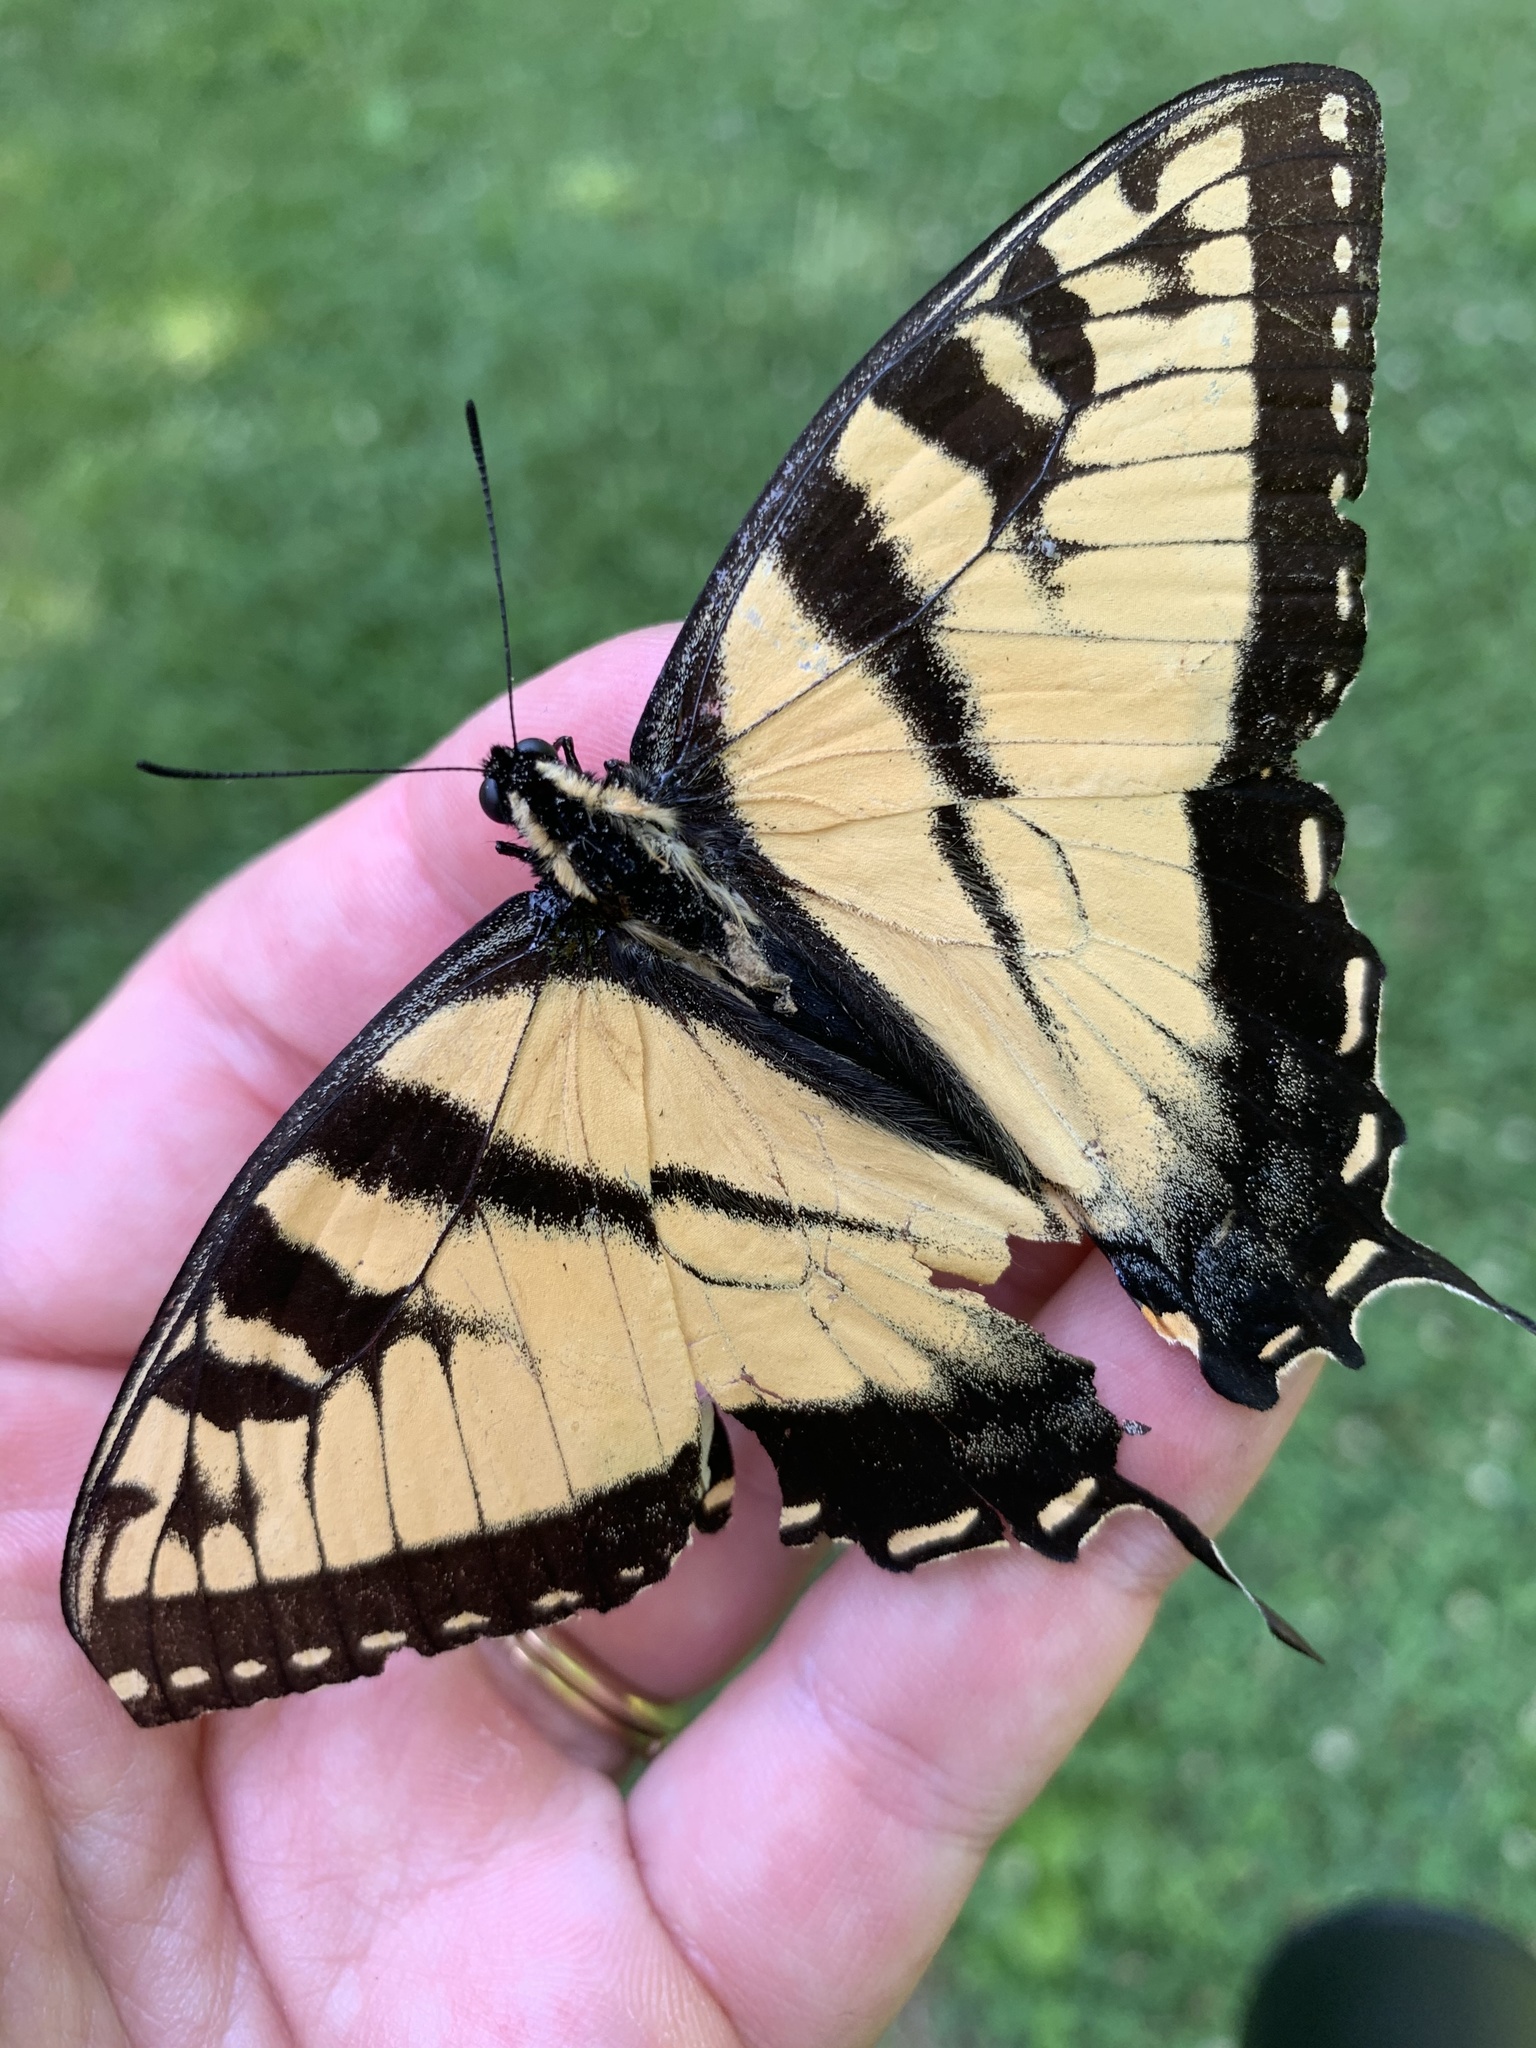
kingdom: Animalia
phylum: Arthropoda
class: Insecta
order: Lepidoptera
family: Papilionidae
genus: Papilio
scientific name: Papilio glaucus
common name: Tiger swallowtail
